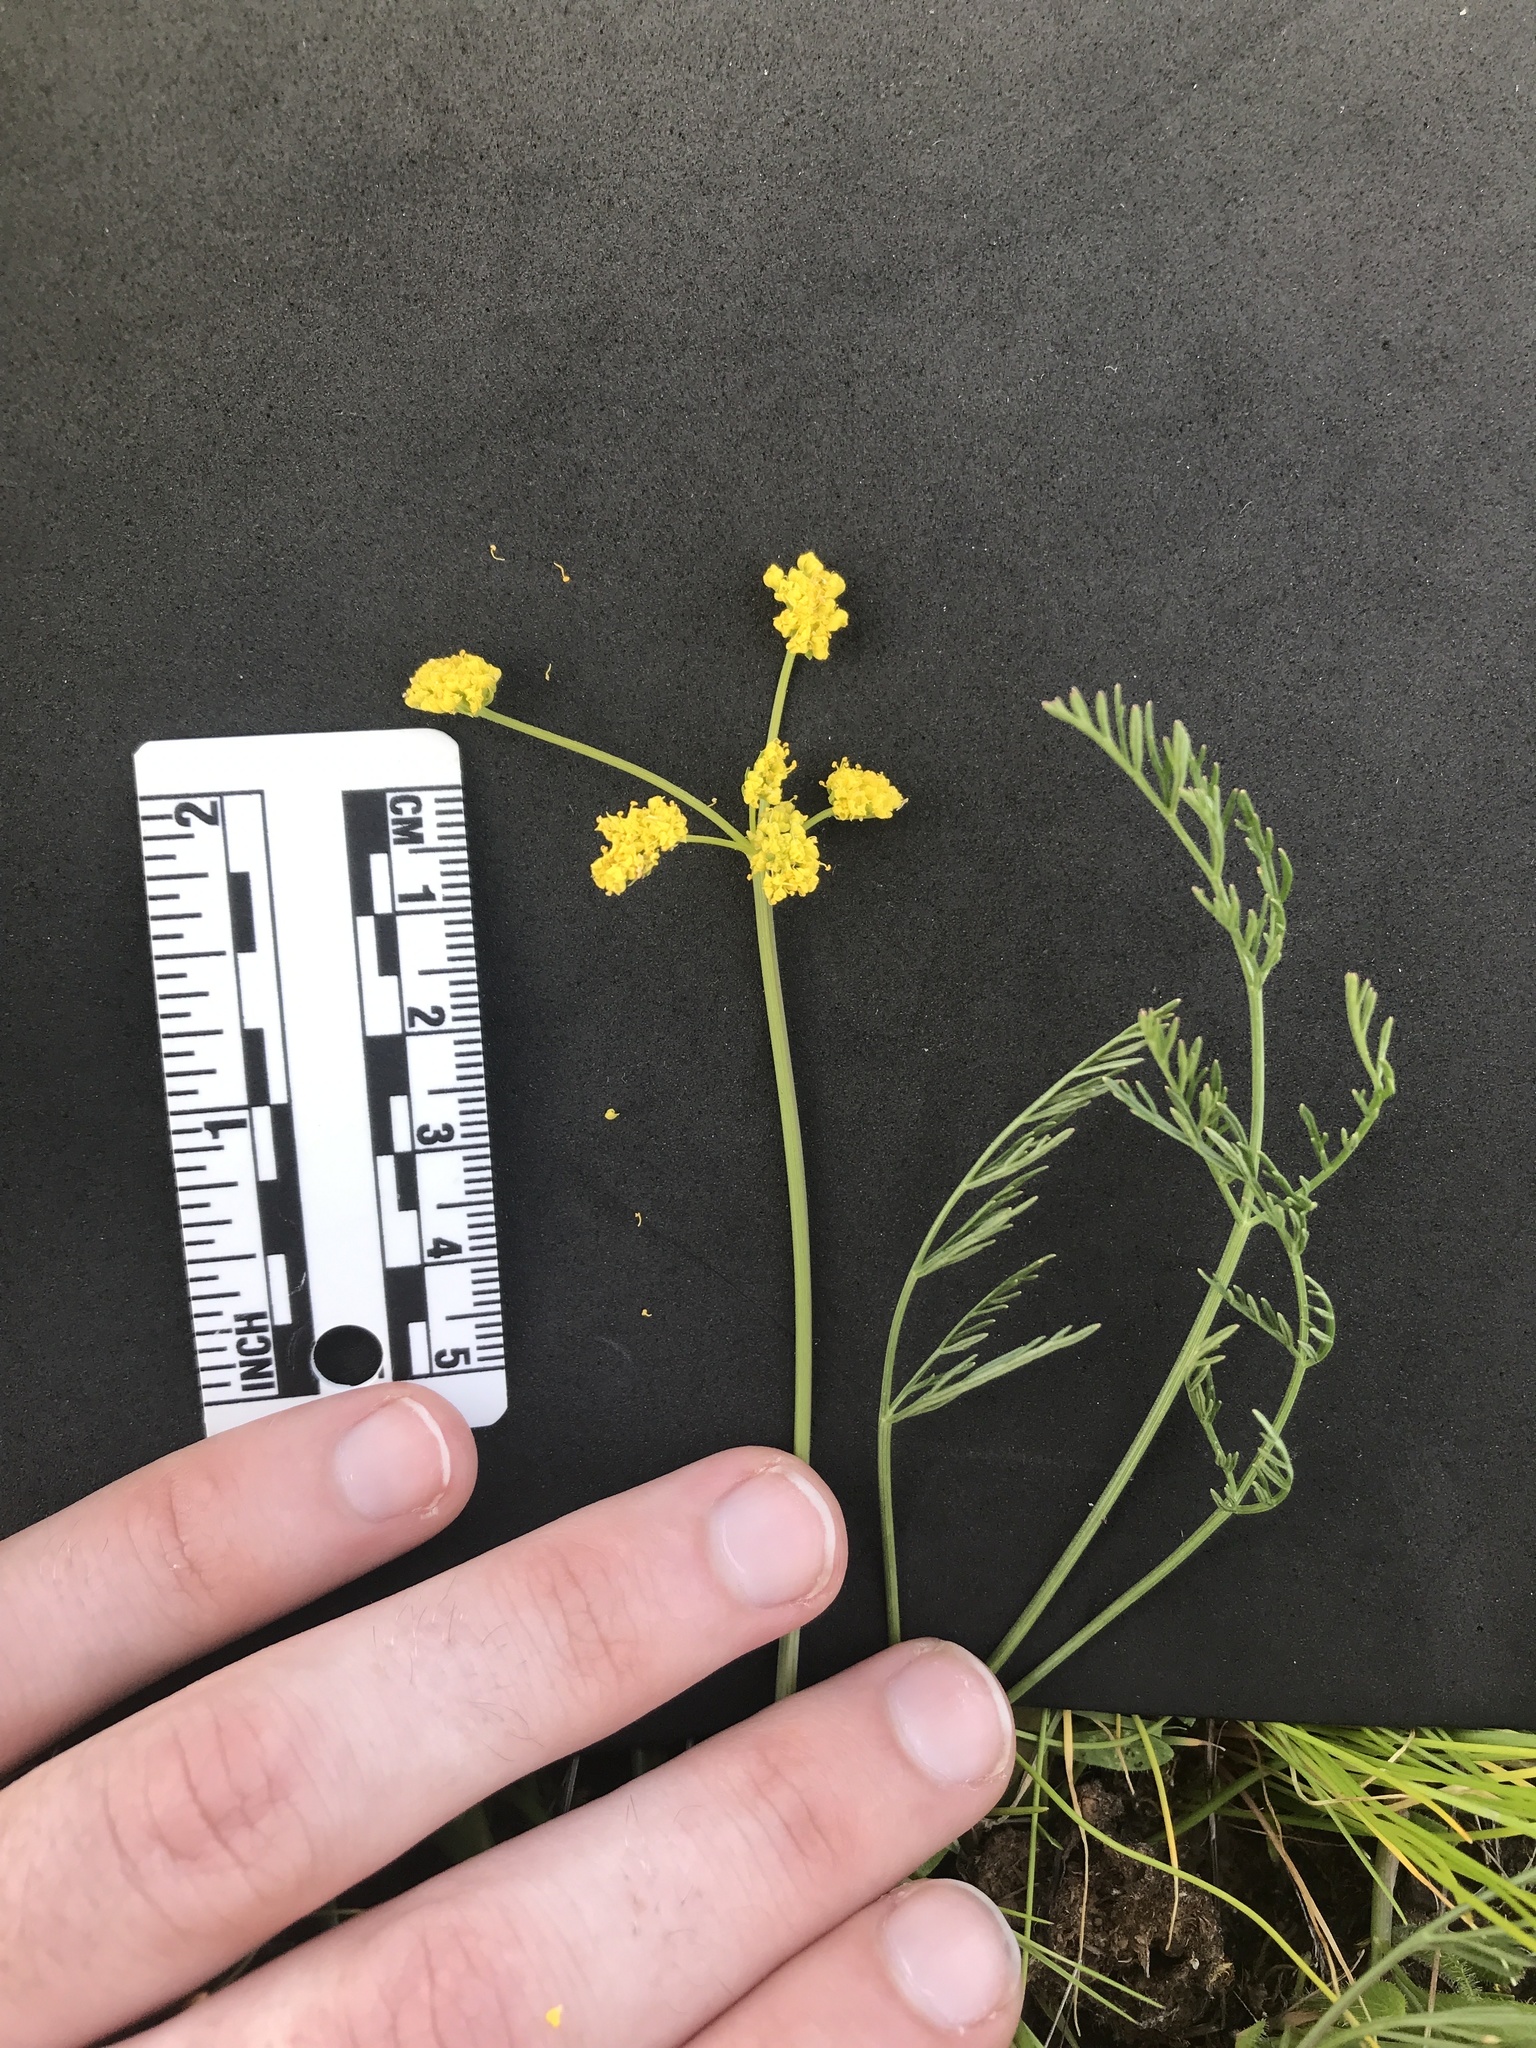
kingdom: Plantae
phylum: Tracheophyta
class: Magnoliopsida
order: Apiales
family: Apiaceae
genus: Lomatium
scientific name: Lomatium bradshawii
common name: Bradshaw's desert-parsley
